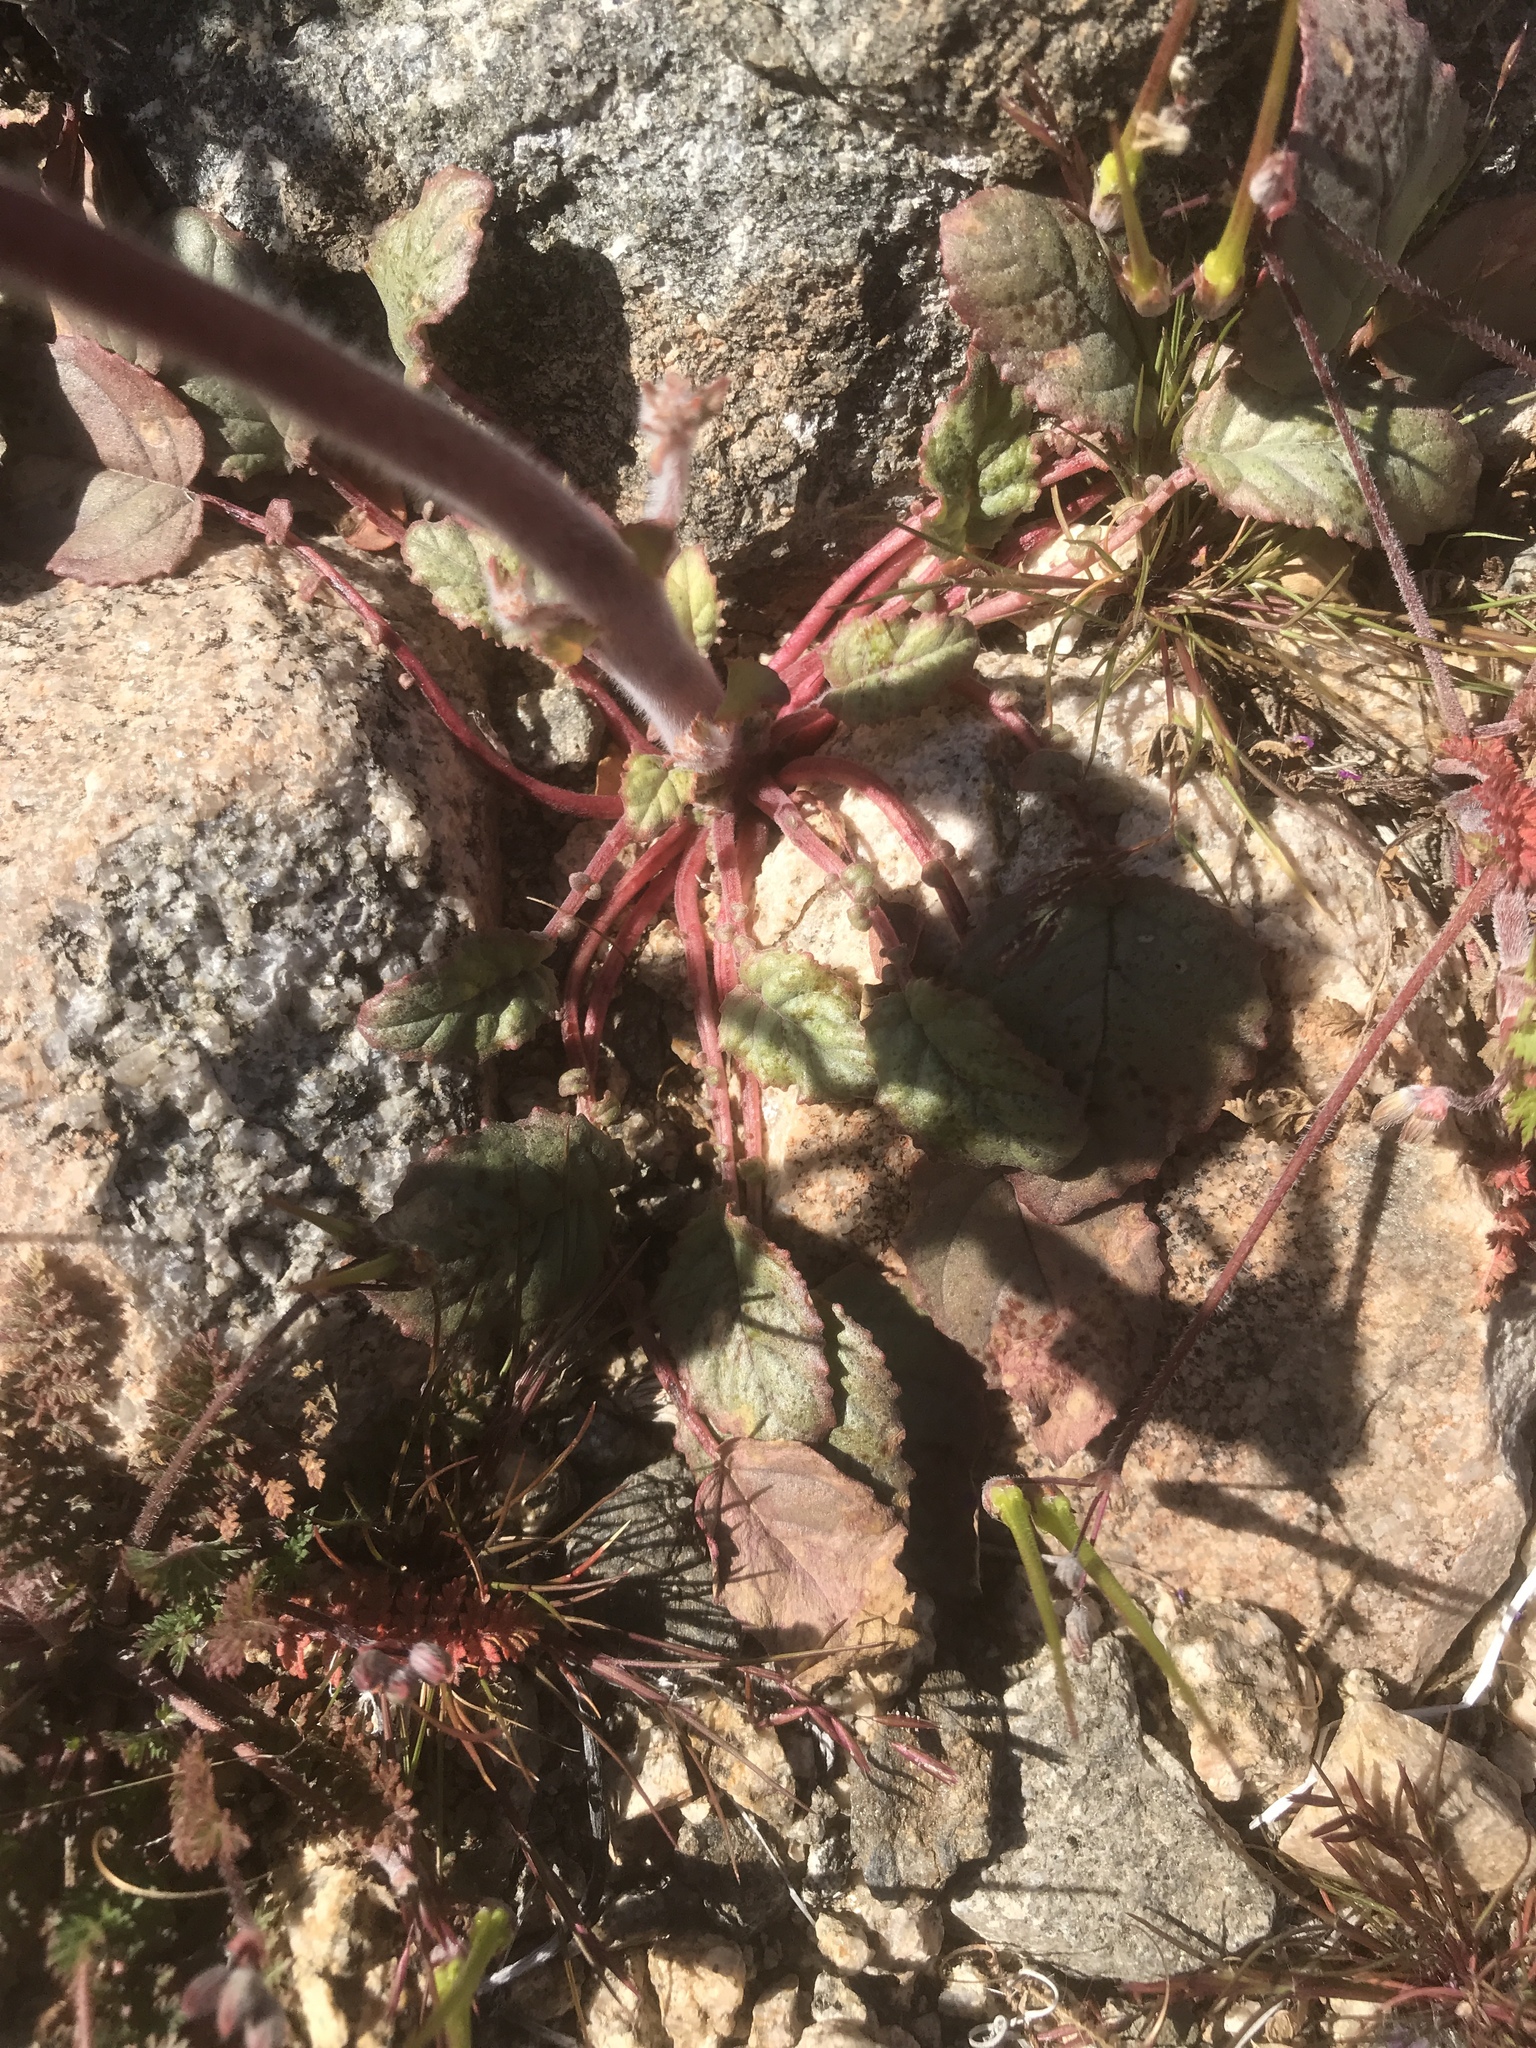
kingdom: Plantae
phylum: Tracheophyta
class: Magnoliopsida
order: Myrtales
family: Onagraceae
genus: Chylismia
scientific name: Chylismia brevipes
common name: Yellow cups
